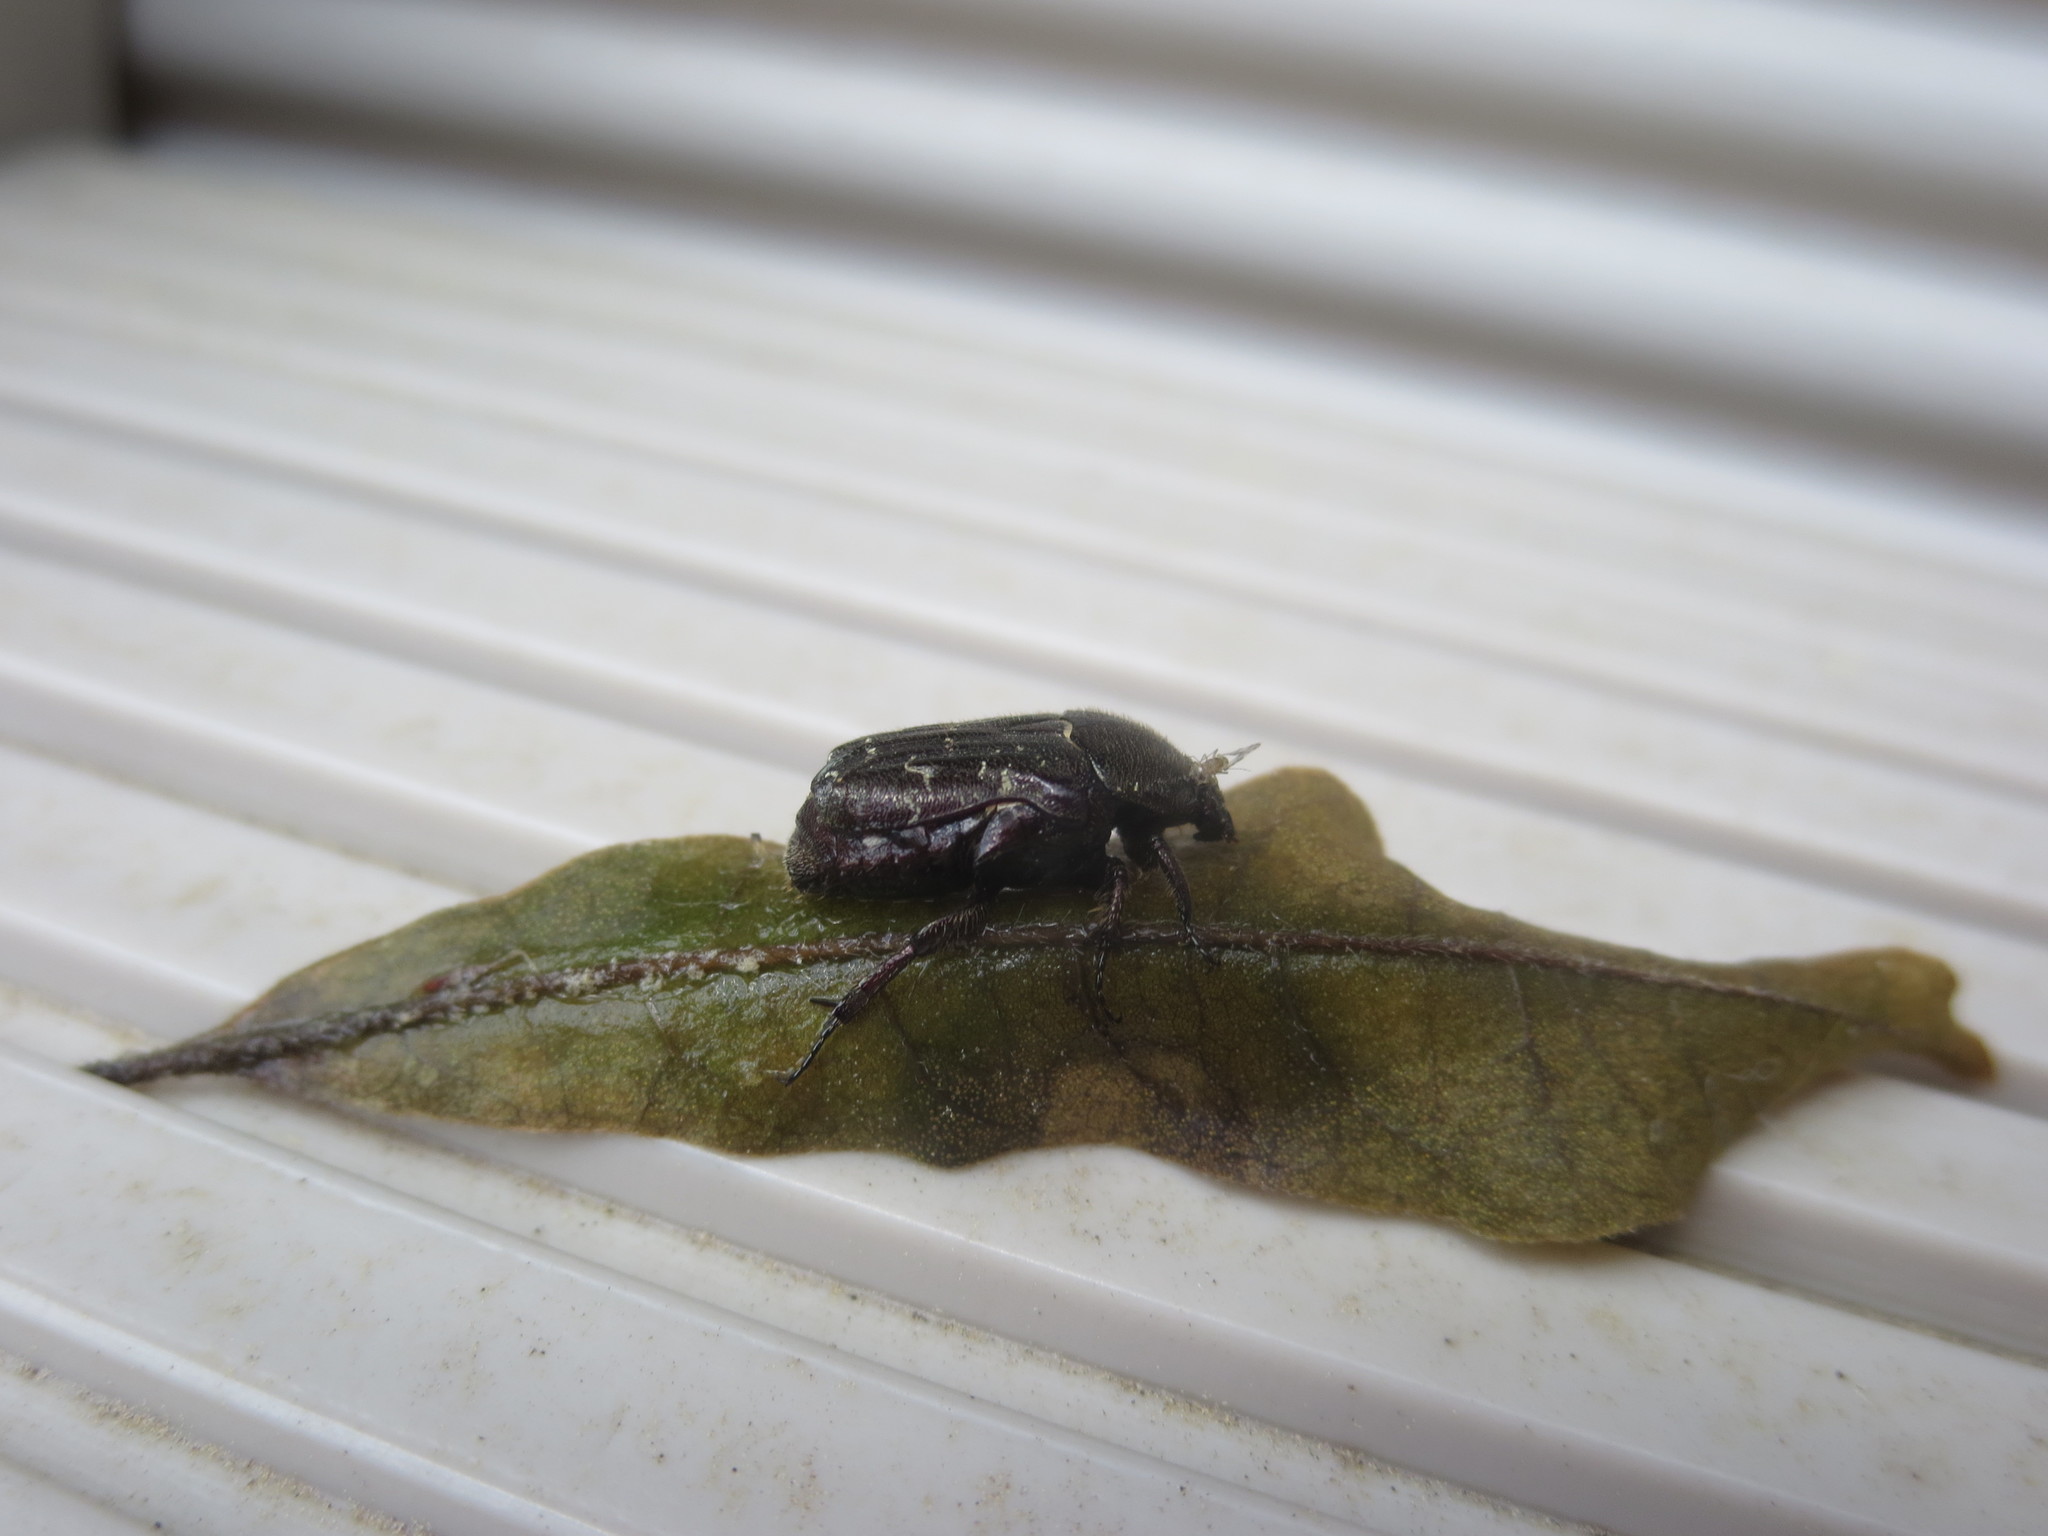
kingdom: Animalia
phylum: Arthropoda
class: Insecta
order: Coleoptera
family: Scarabaeidae
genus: Euphoria
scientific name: Euphoria sepulcralis
